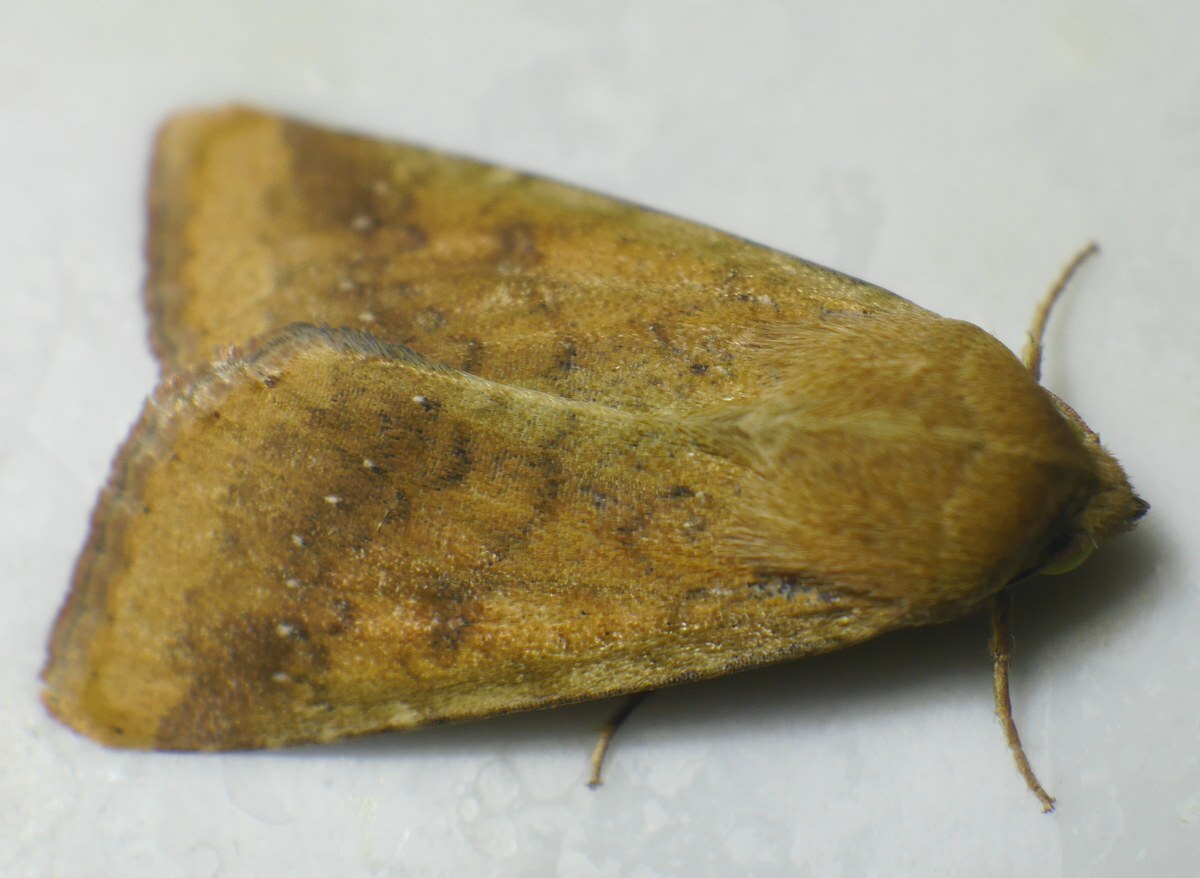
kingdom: Animalia
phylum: Arthropoda
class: Insecta
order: Lepidoptera
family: Noctuidae
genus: Helicoverpa
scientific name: Helicoverpa armigera
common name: Cotton bollworm
